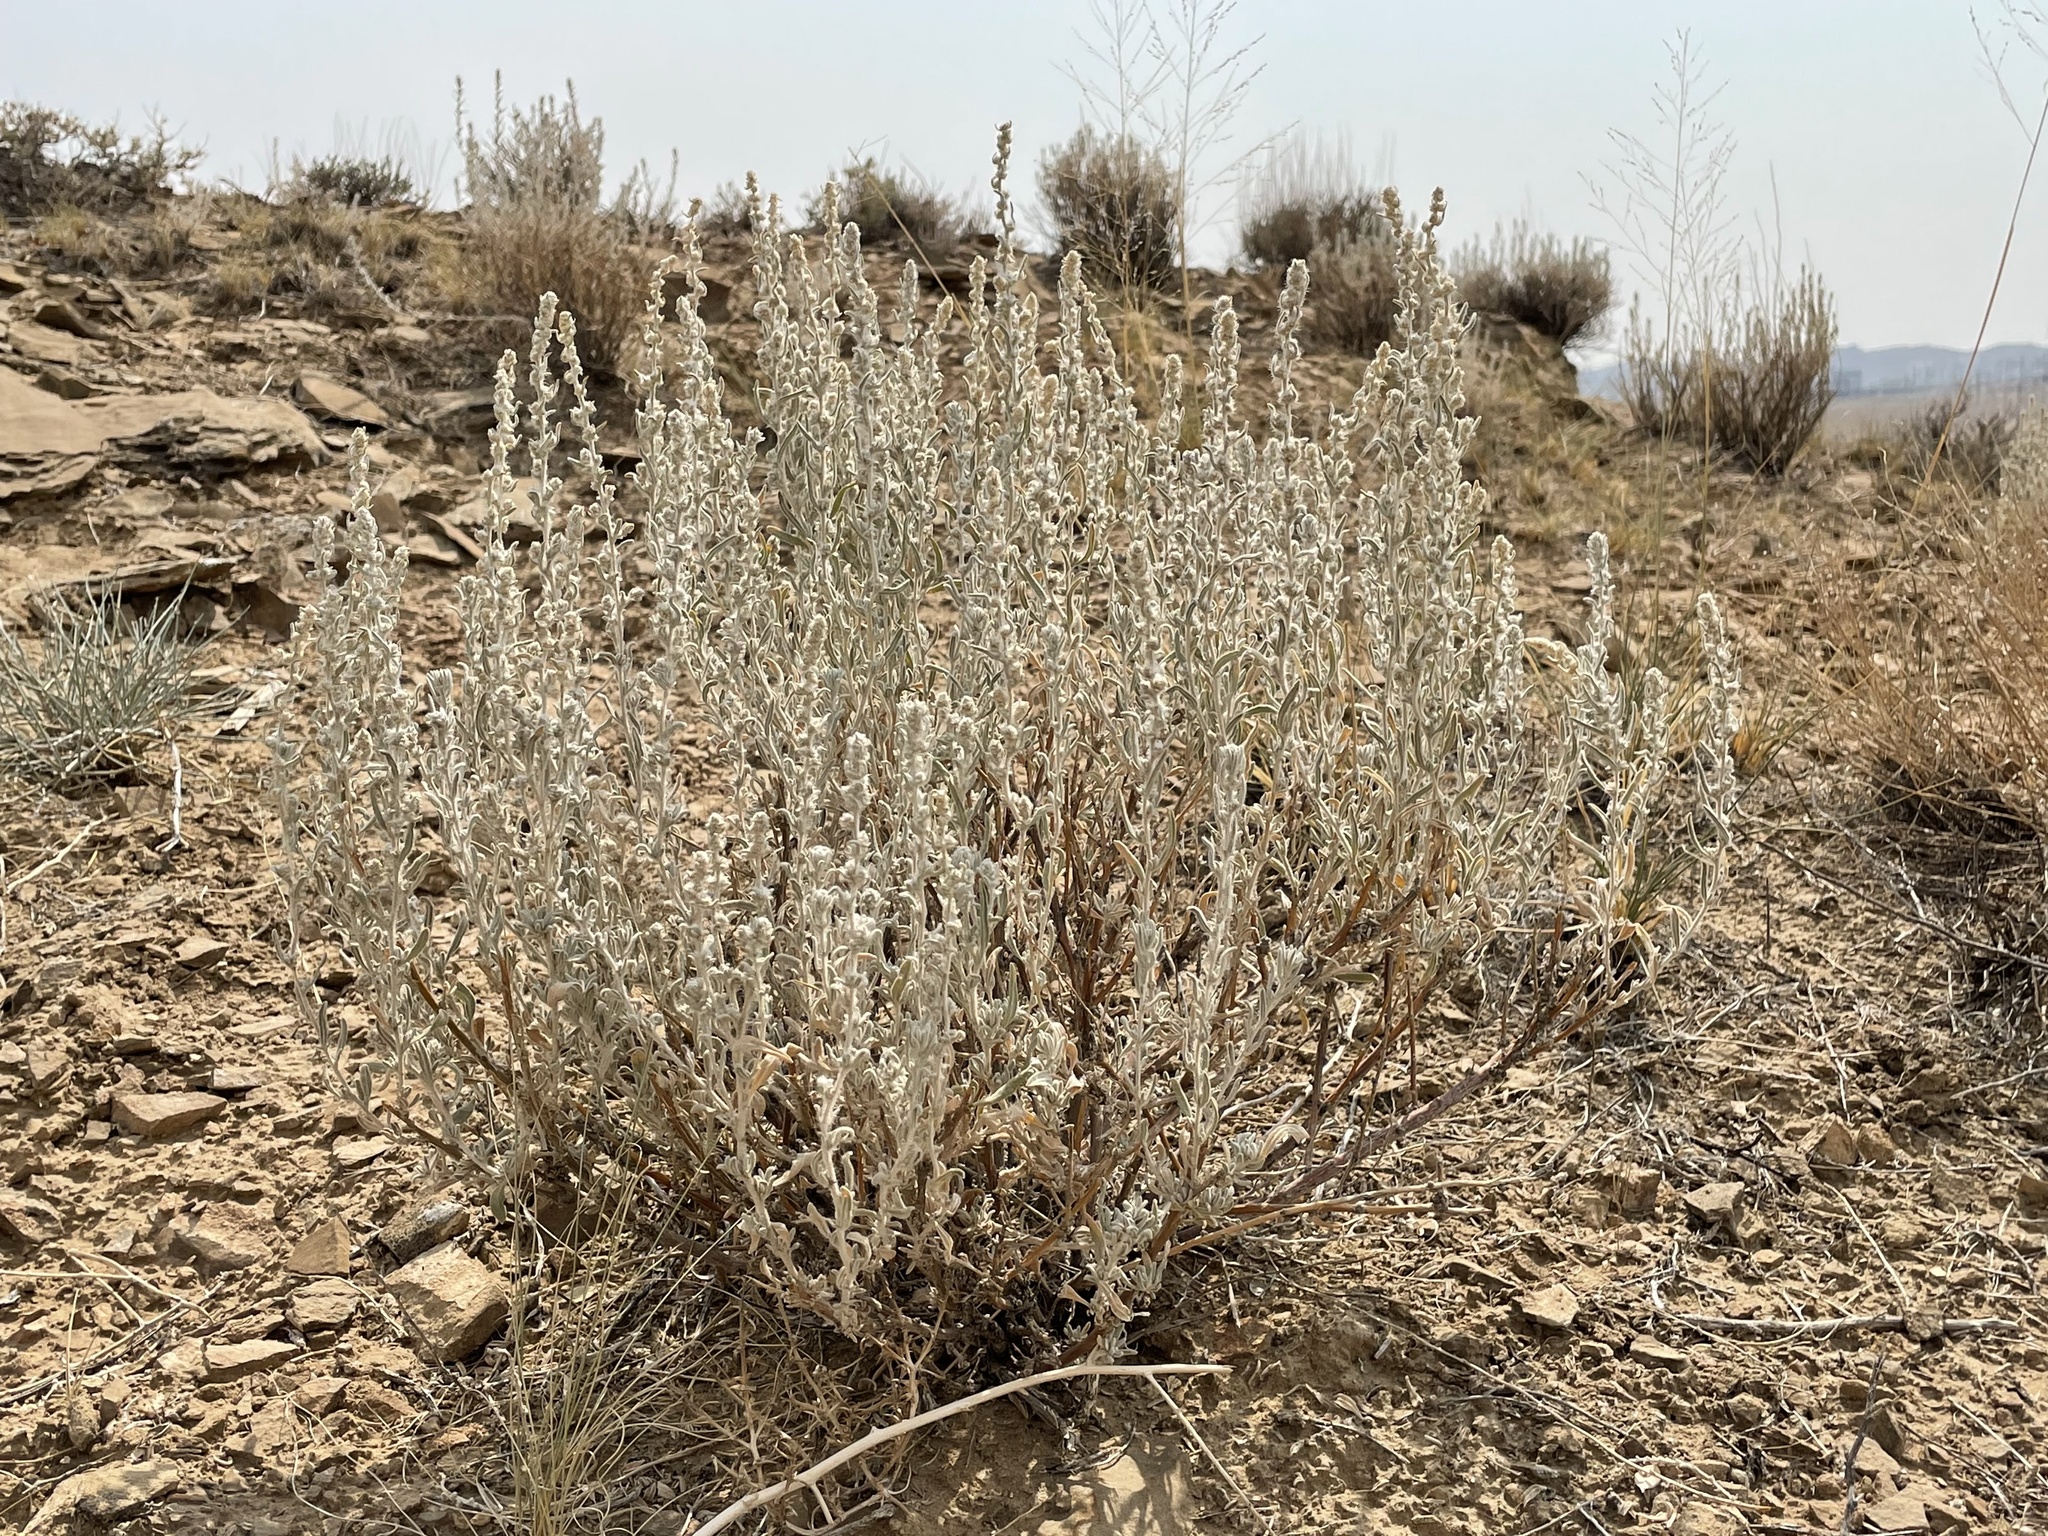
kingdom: Plantae
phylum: Tracheophyta
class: Magnoliopsida
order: Caryophyllales
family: Amaranthaceae
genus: Krascheninnikovia
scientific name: Krascheninnikovia lanata
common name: Winterfat
